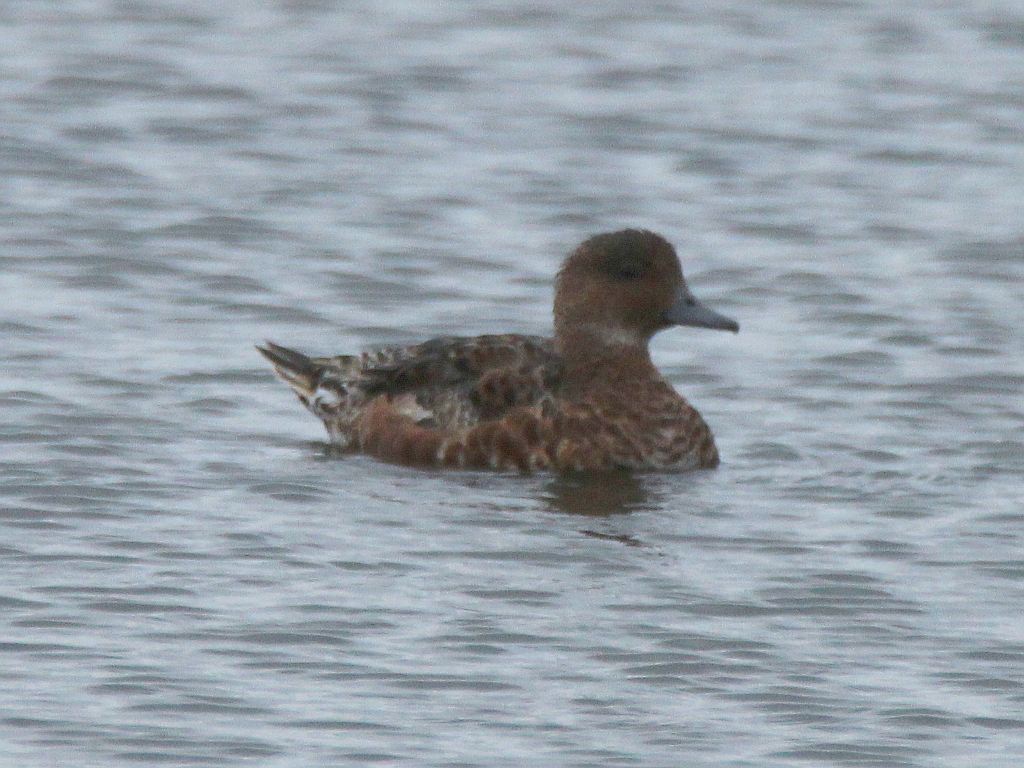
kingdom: Animalia
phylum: Chordata
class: Aves
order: Anseriformes
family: Anatidae
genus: Mareca
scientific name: Mareca penelope
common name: Eurasian wigeon
